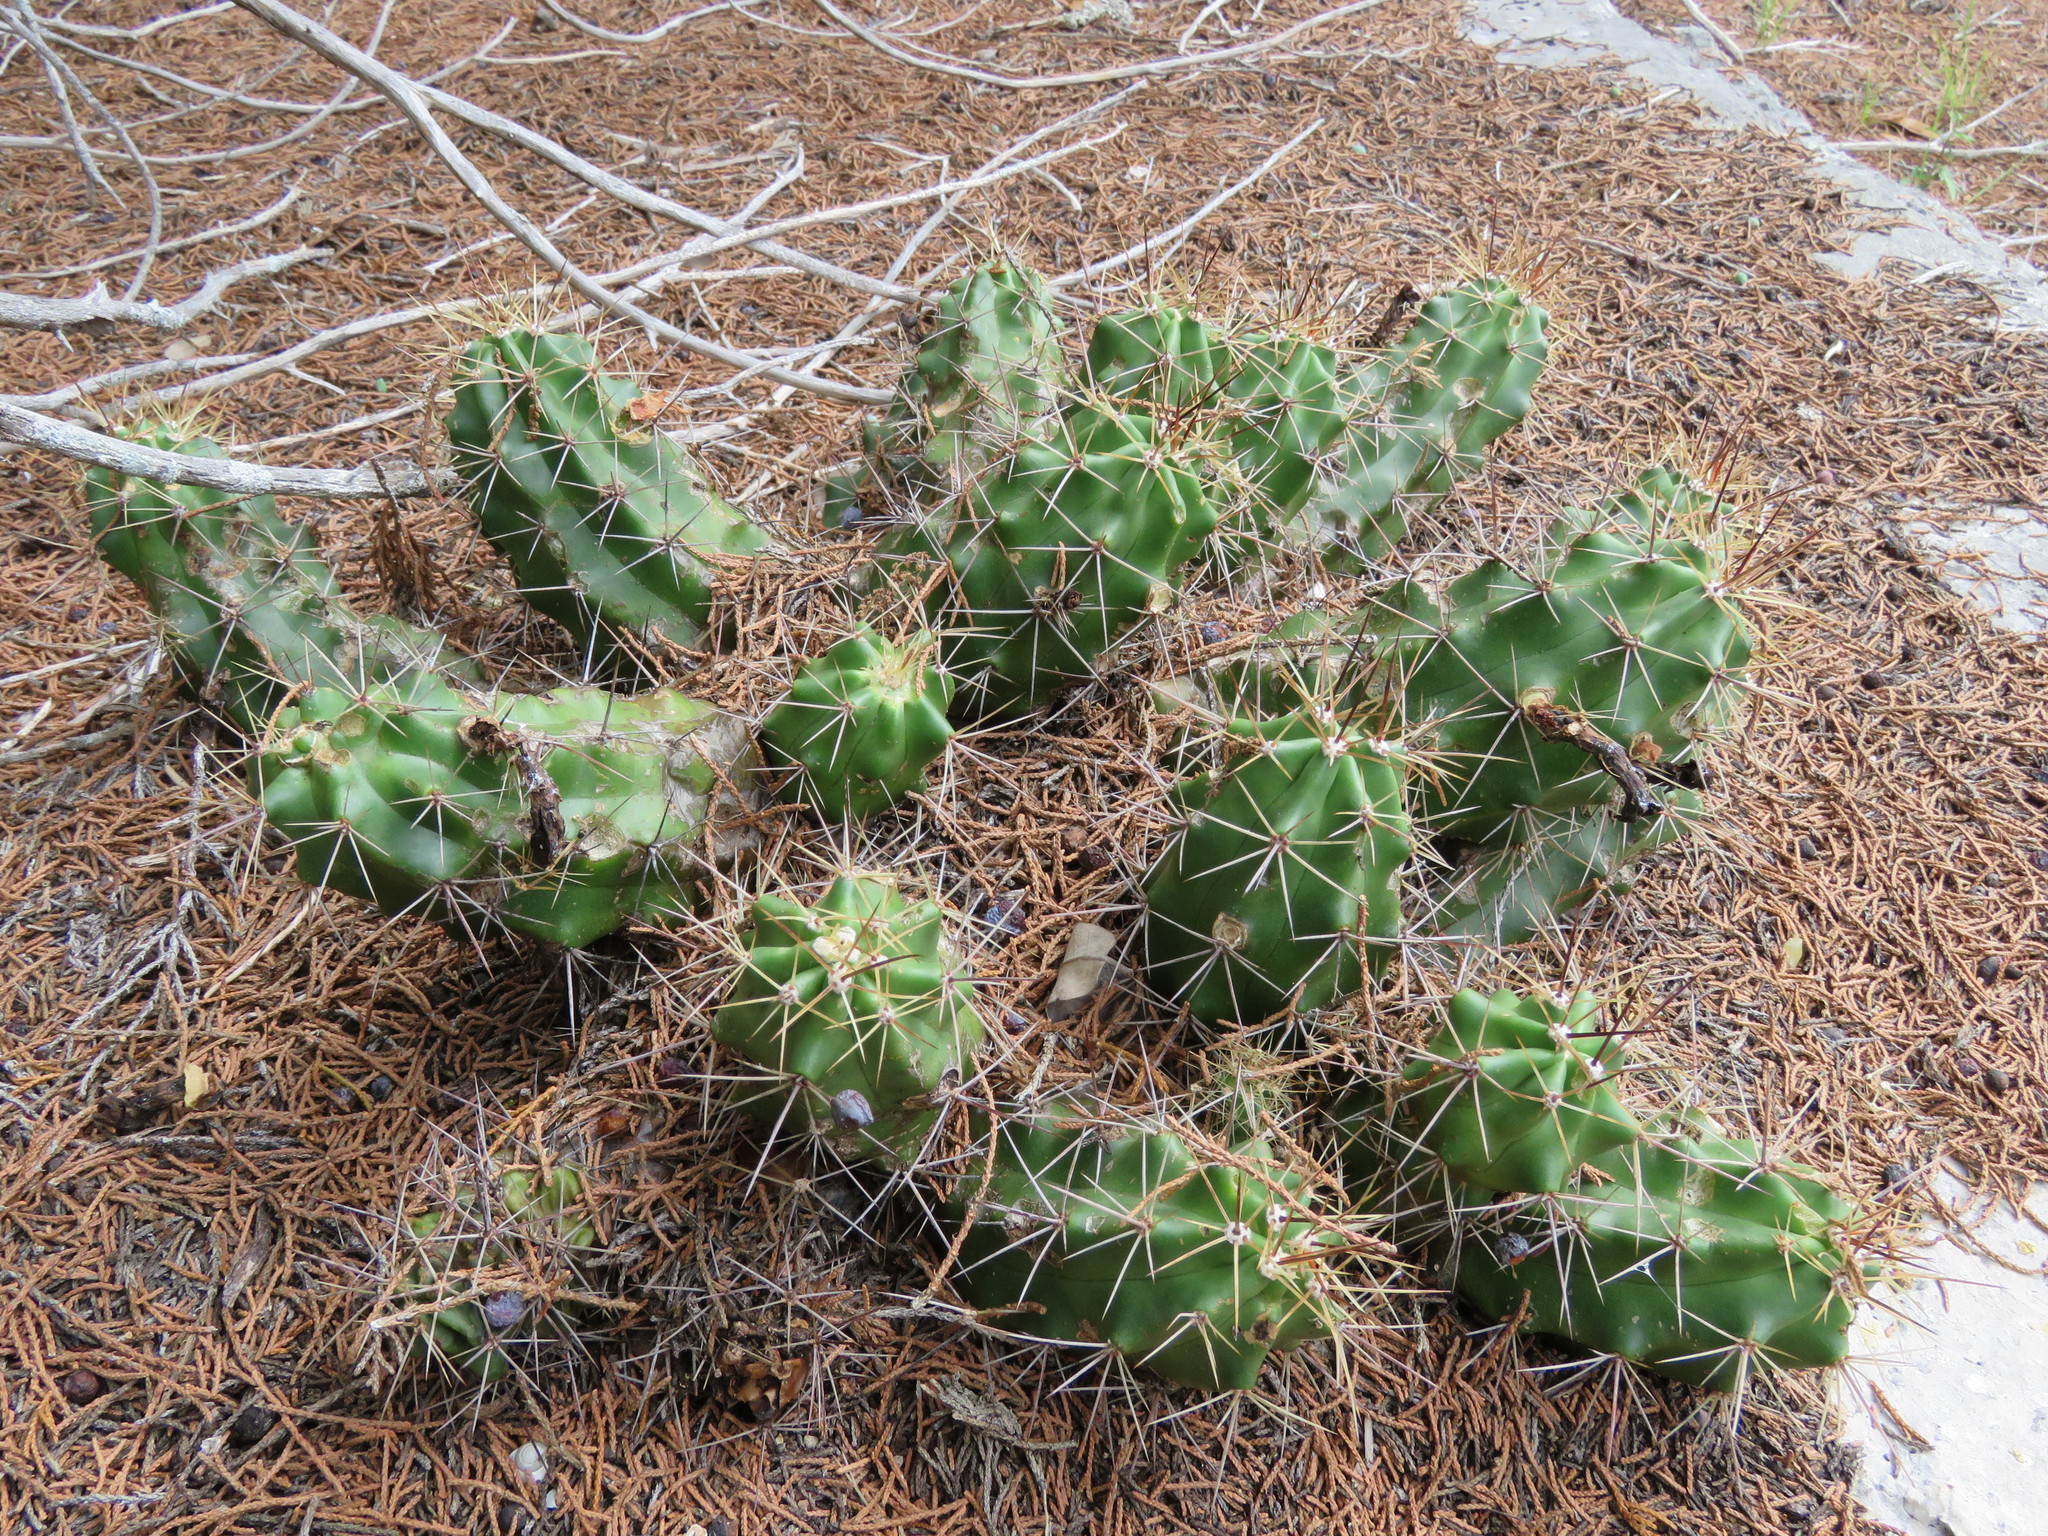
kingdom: Plantae
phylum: Tracheophyta
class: Magnoliopsida
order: Caryophyllales
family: Cactaceae
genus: Echinocereus
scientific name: Echinocereus coccineus
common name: Scarlet hedgehog cactus
